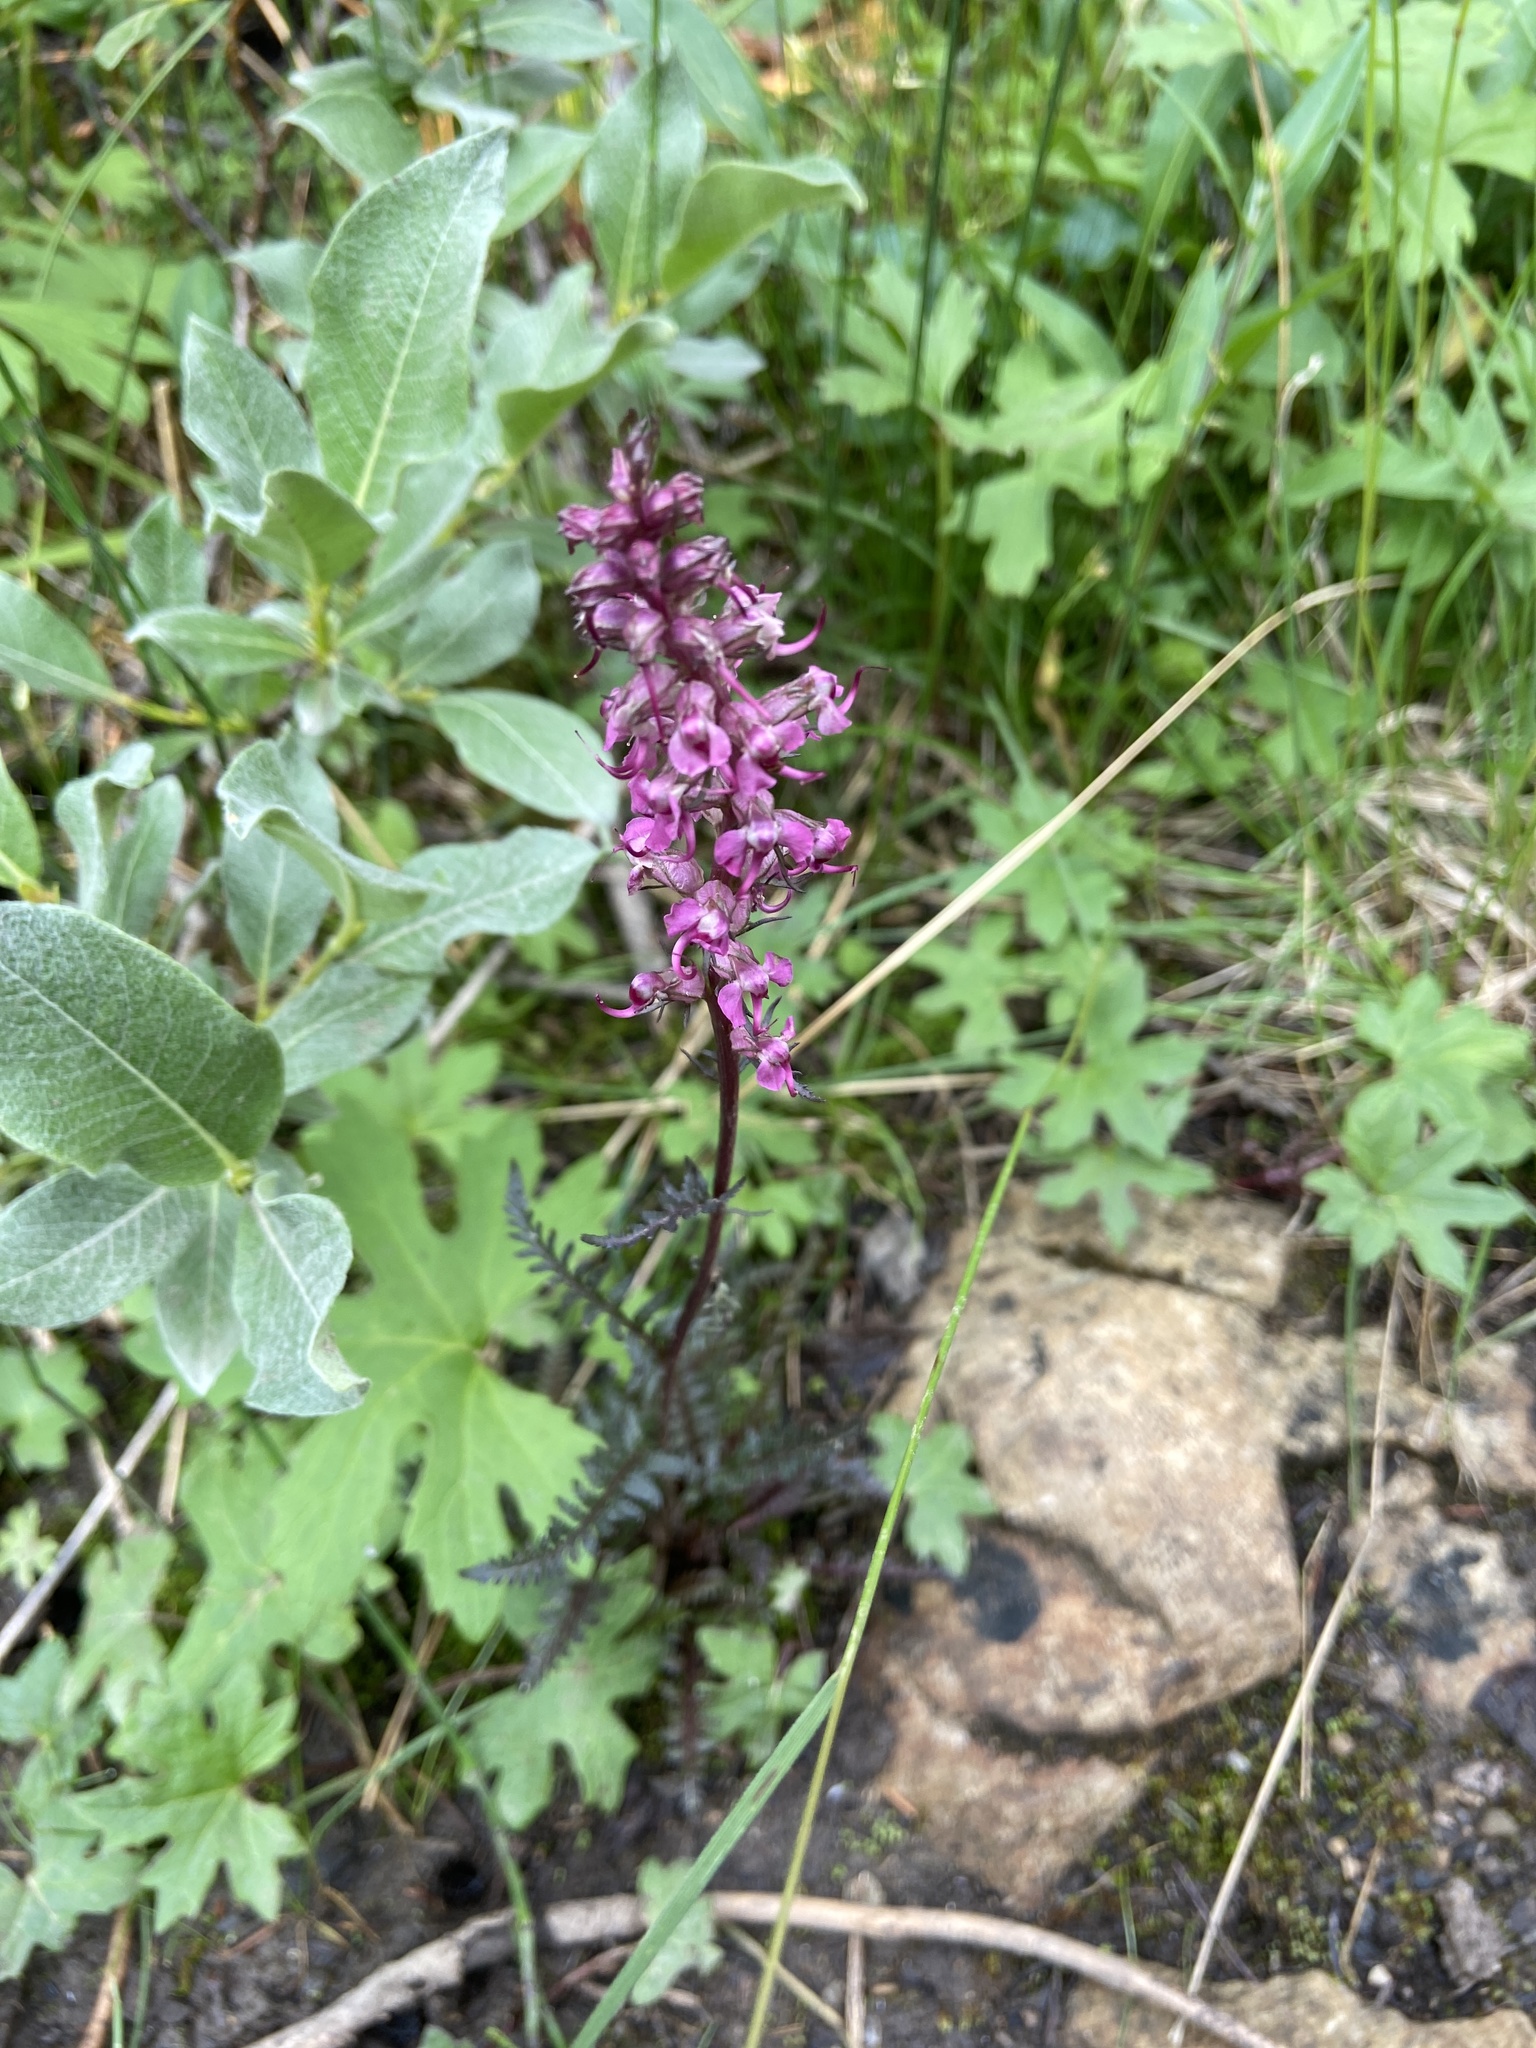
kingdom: Plantae
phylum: Tracheophyta
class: Magnoliopsida
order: Lamiales
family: Orobanchaceae
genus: Pedicularis
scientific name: Pedicularis groenlandica
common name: Elephant's-head
